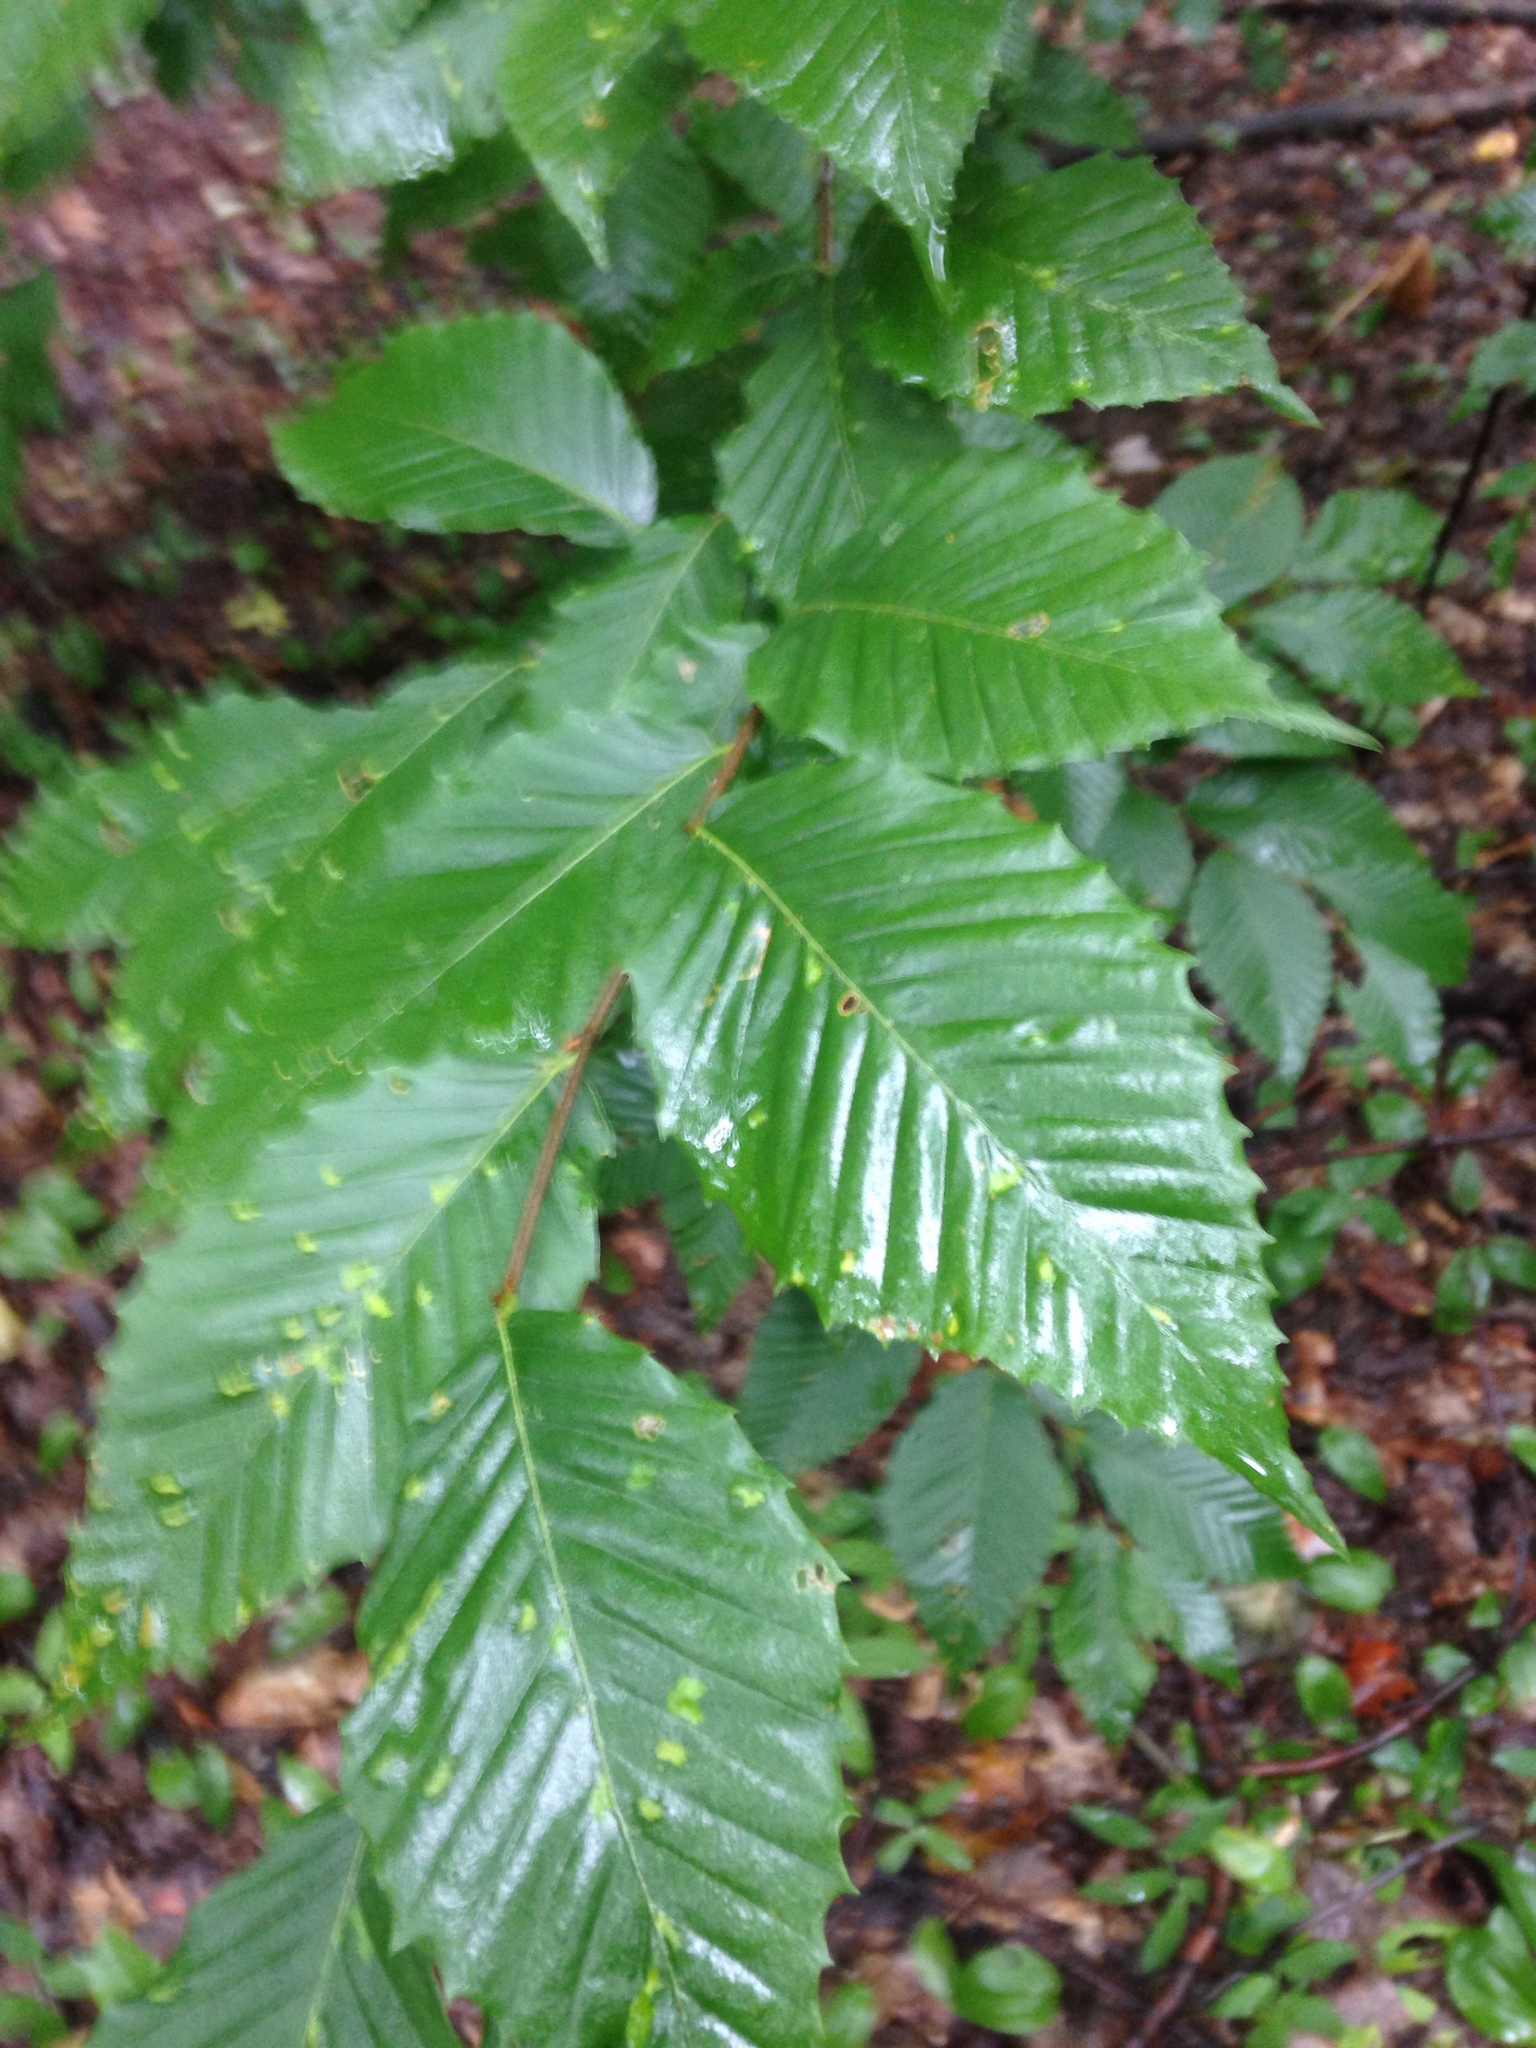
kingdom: Plantae
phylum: Tracheophyta
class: Magnoliopsida
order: Fagales
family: Fagaceae
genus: Fagus
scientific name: Fagus grandifolia
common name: American beech
